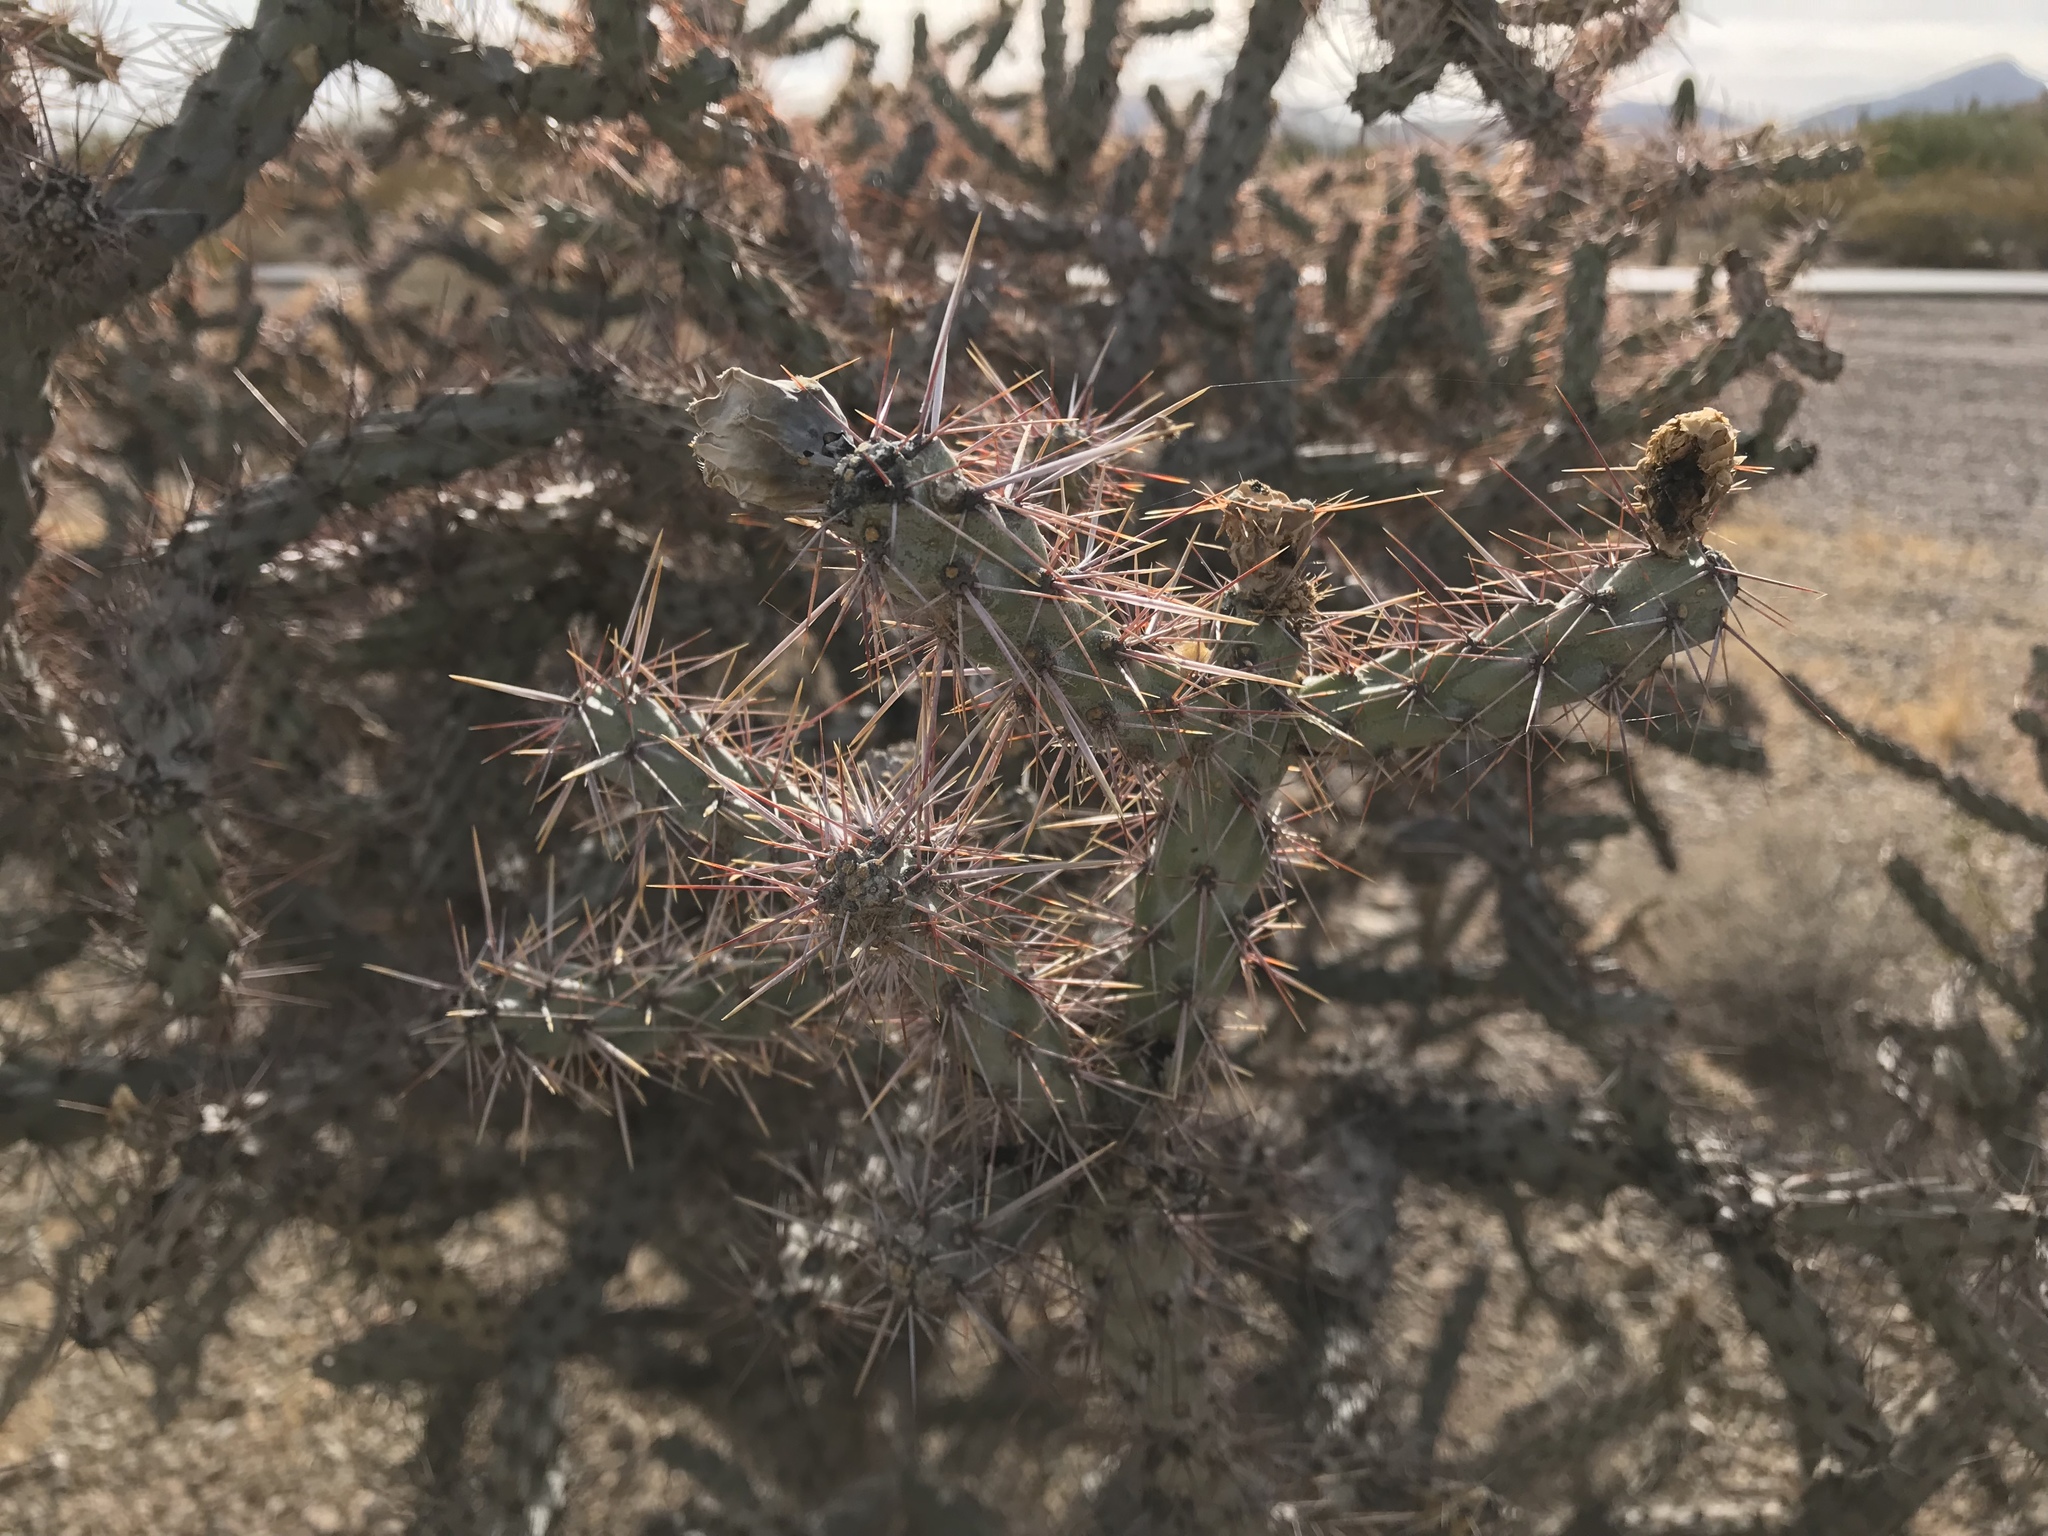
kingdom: Plantae
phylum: Tracheophyta
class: Magnoliopsida
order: Caryophyllales
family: Cactaceae
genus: Cylindropuntia
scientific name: Cylindropuntia thurberi
